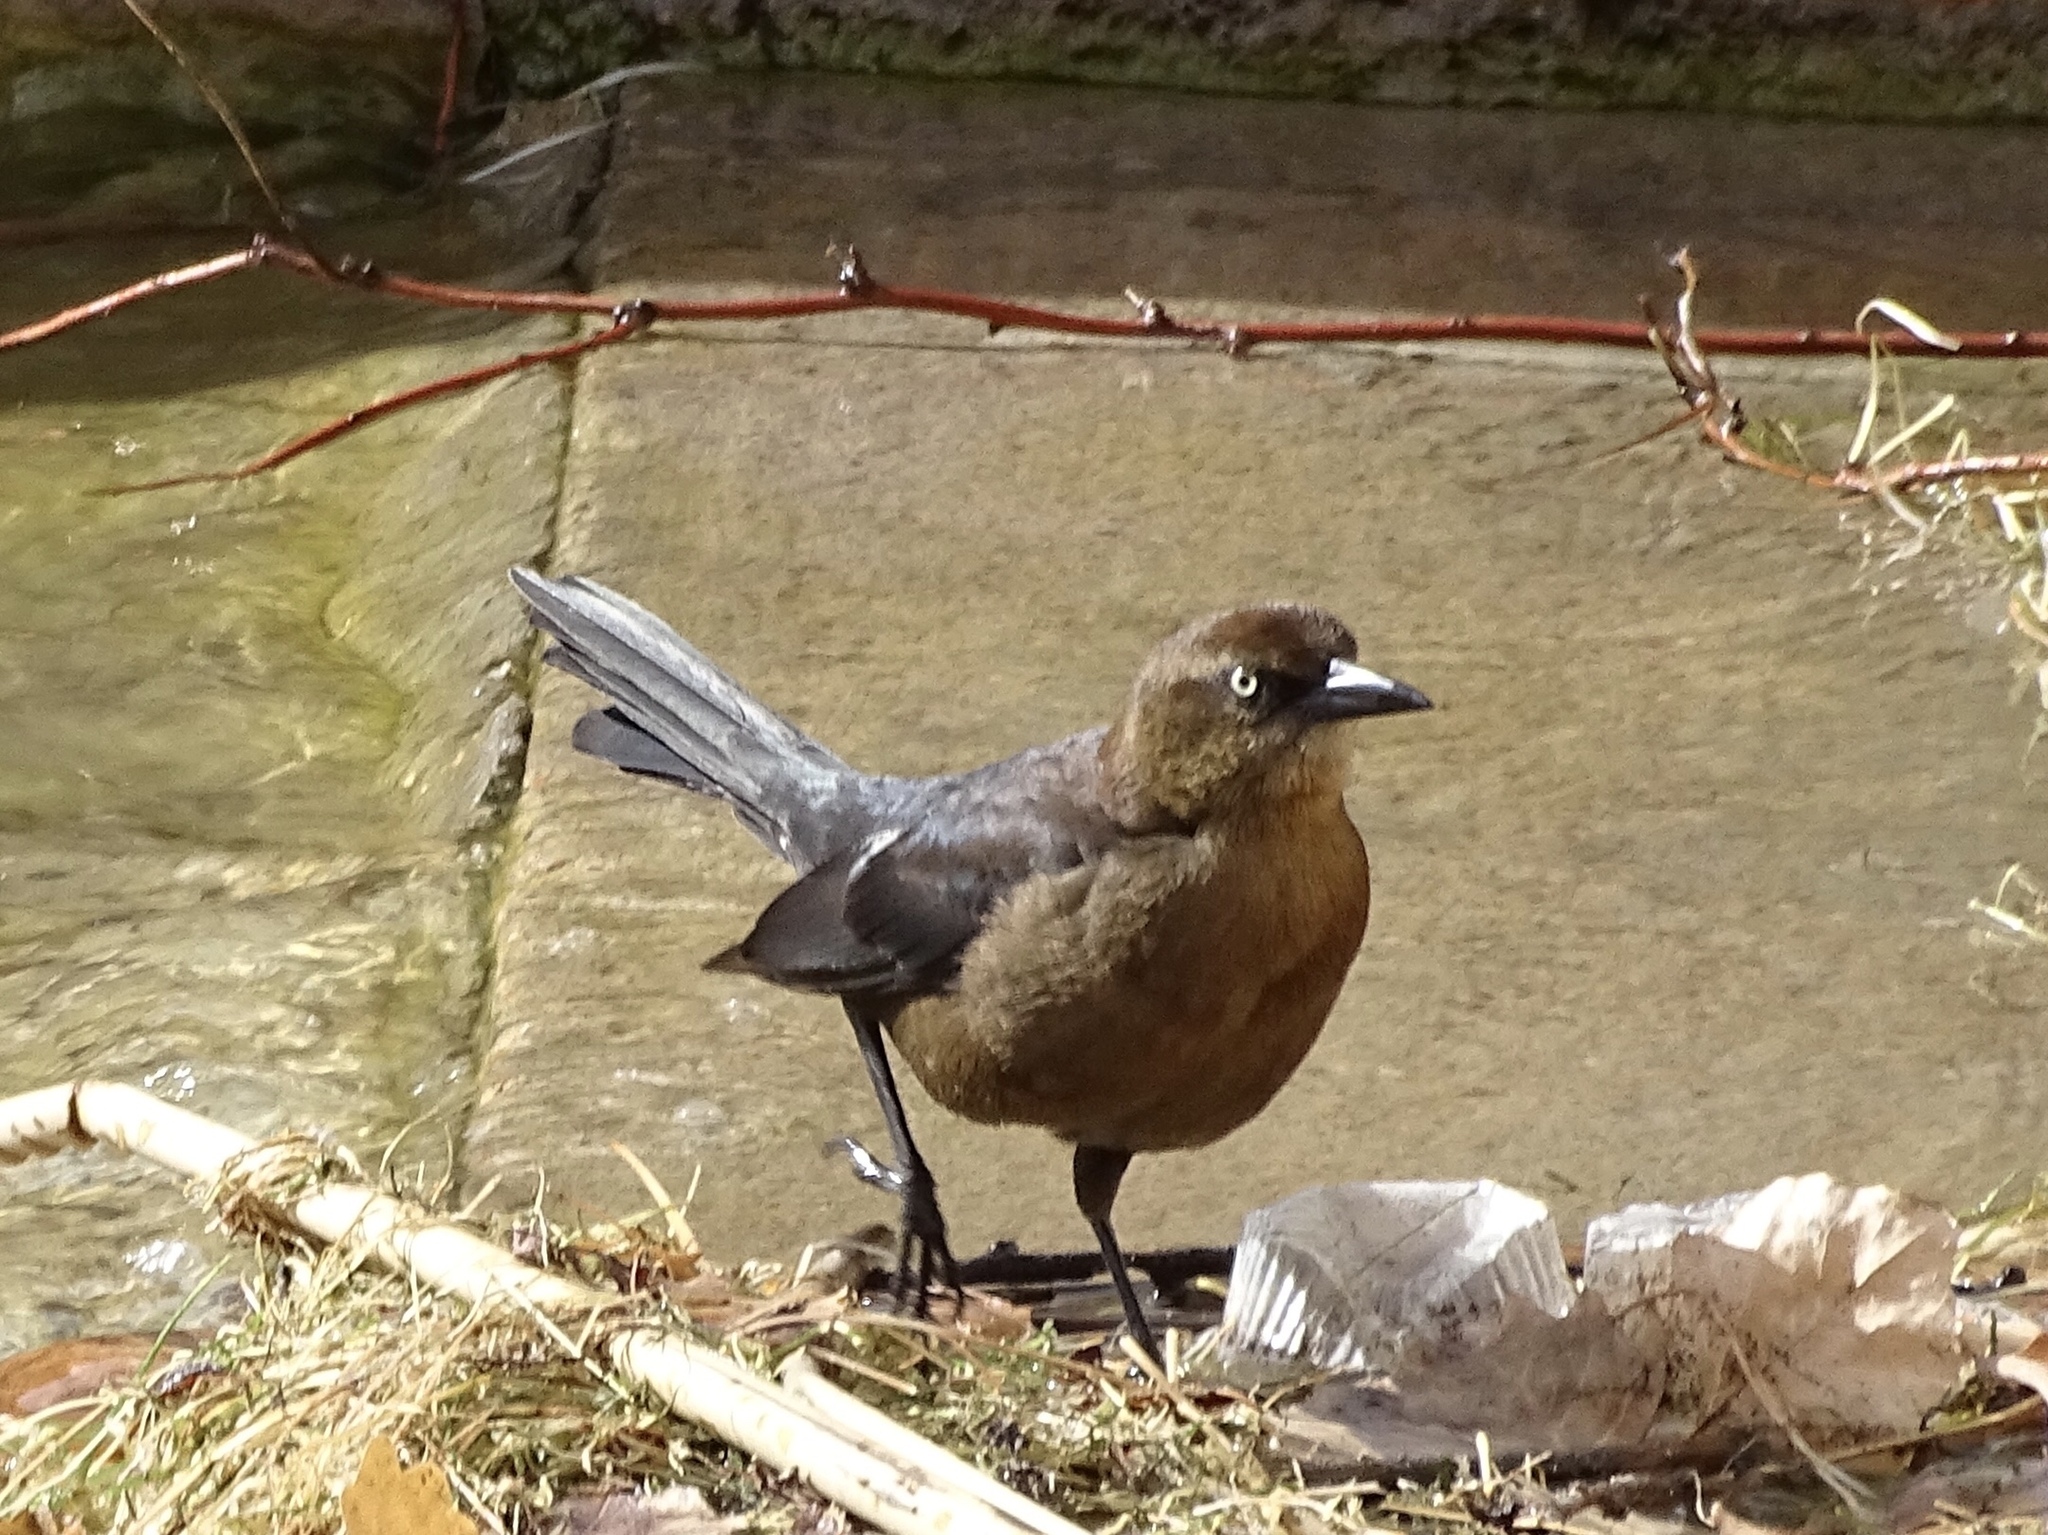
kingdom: Animalia
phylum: Chordata
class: Aves
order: Passeriformes
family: Icteridae
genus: Quiscalus
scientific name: Quiscalus mexicanus
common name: Great-tailed grackle
